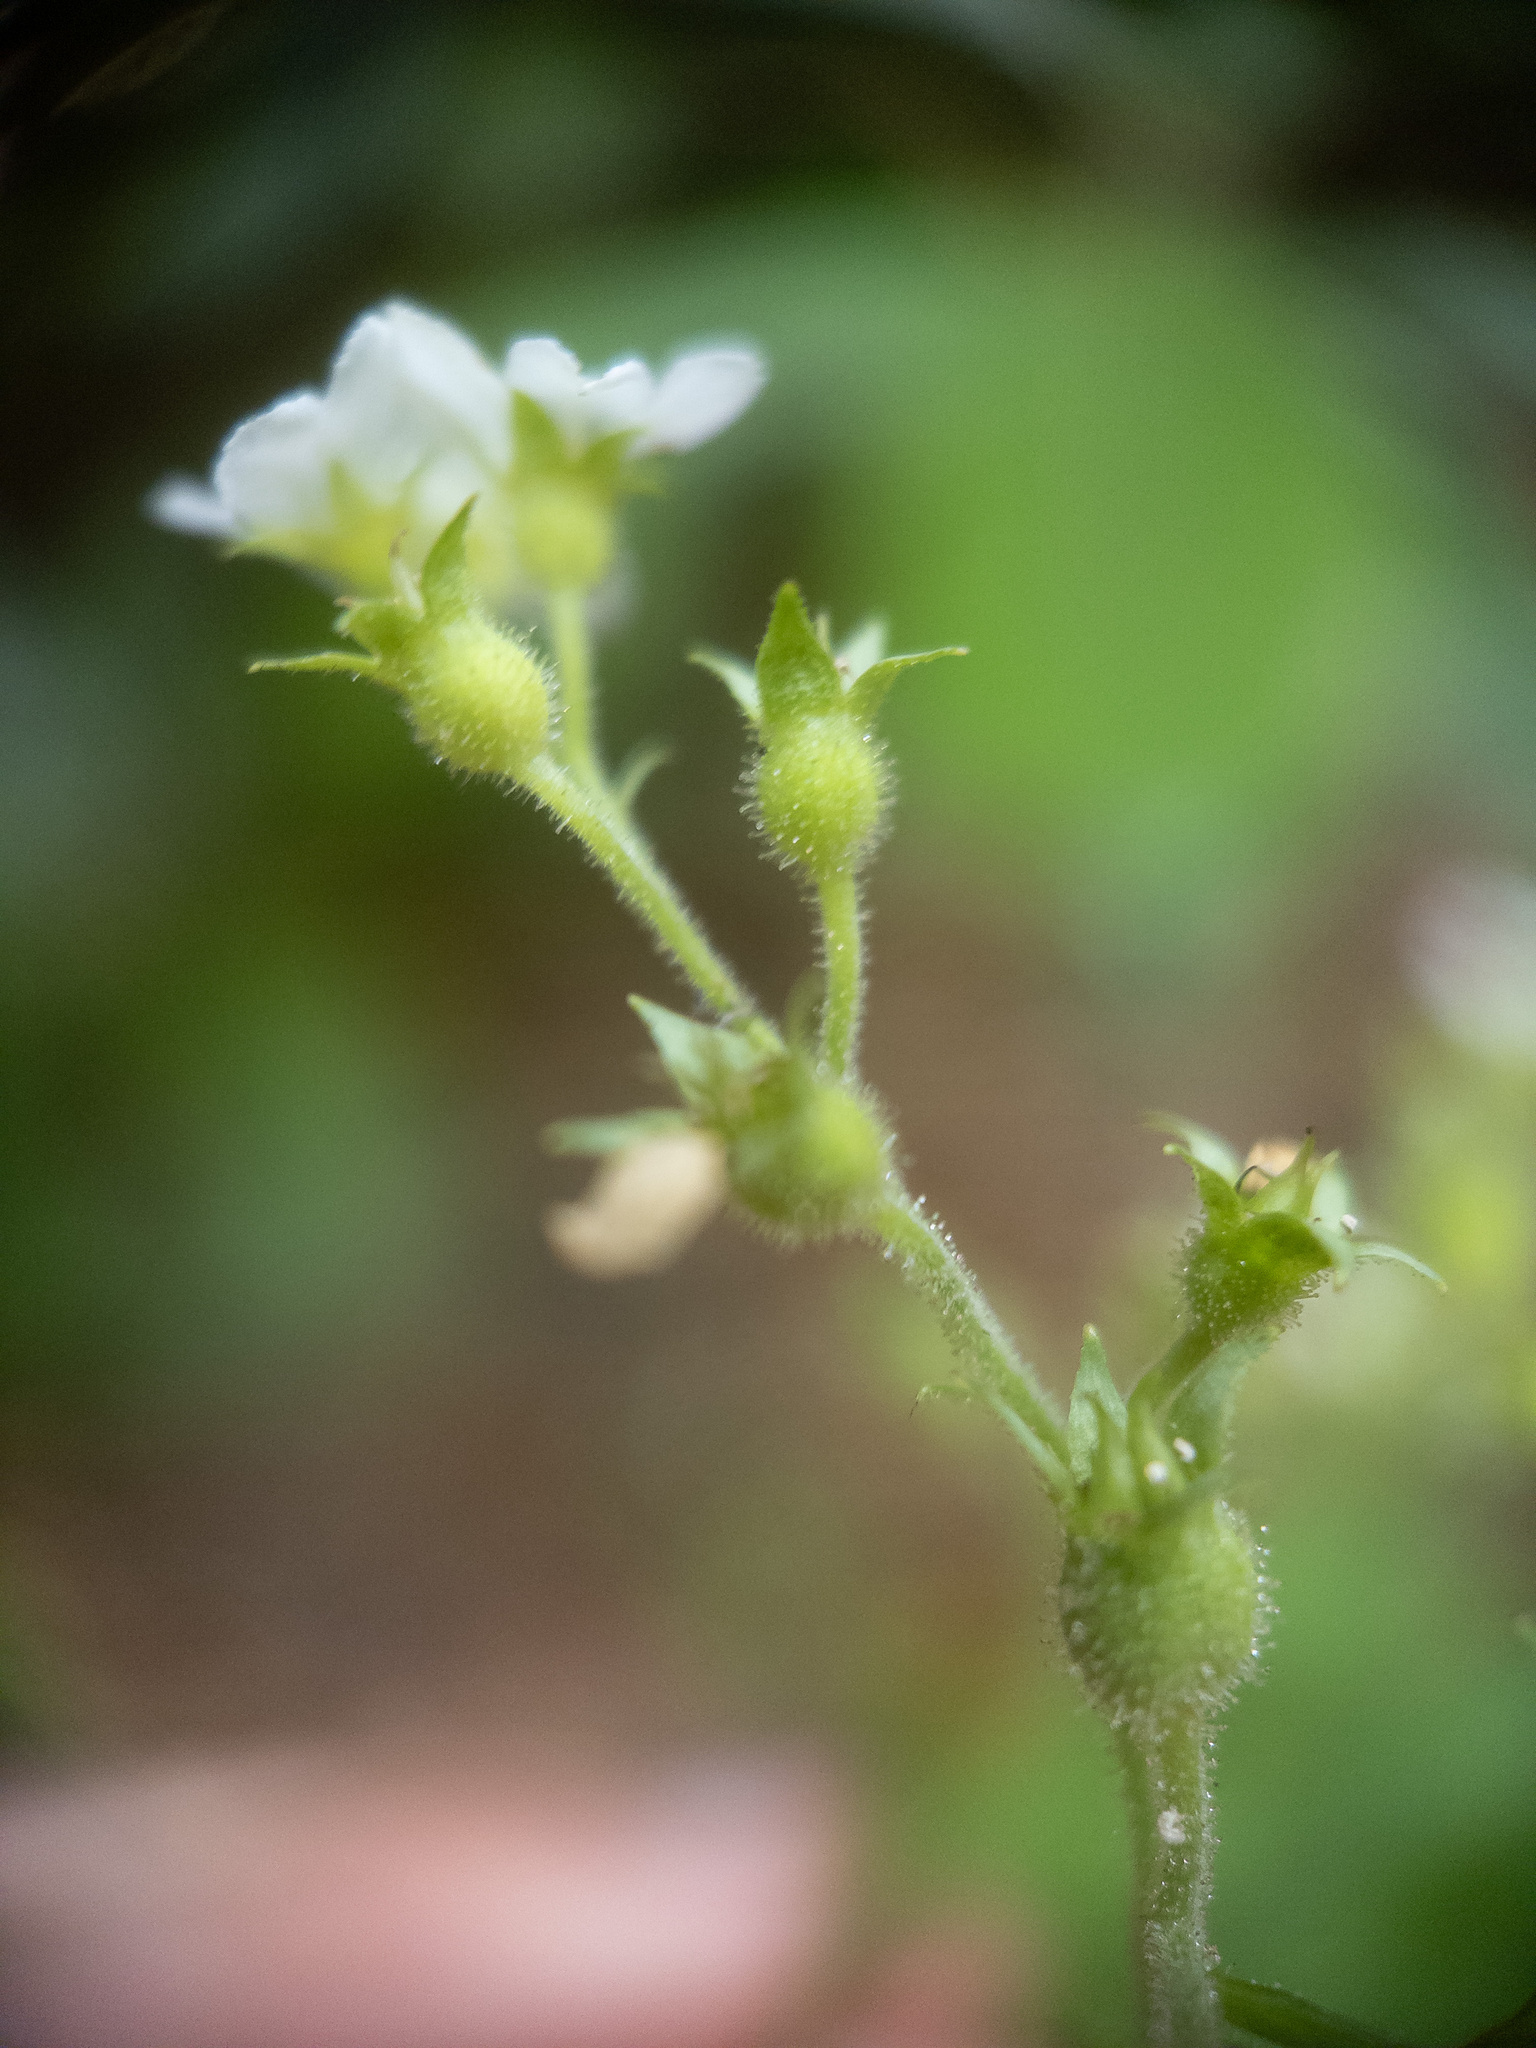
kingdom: Plantae
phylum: Tracheophyta
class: Magnoliopsida
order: Saxifragales
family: Saxifragaceae
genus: Boykinia
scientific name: Boykinia aconitifolia
